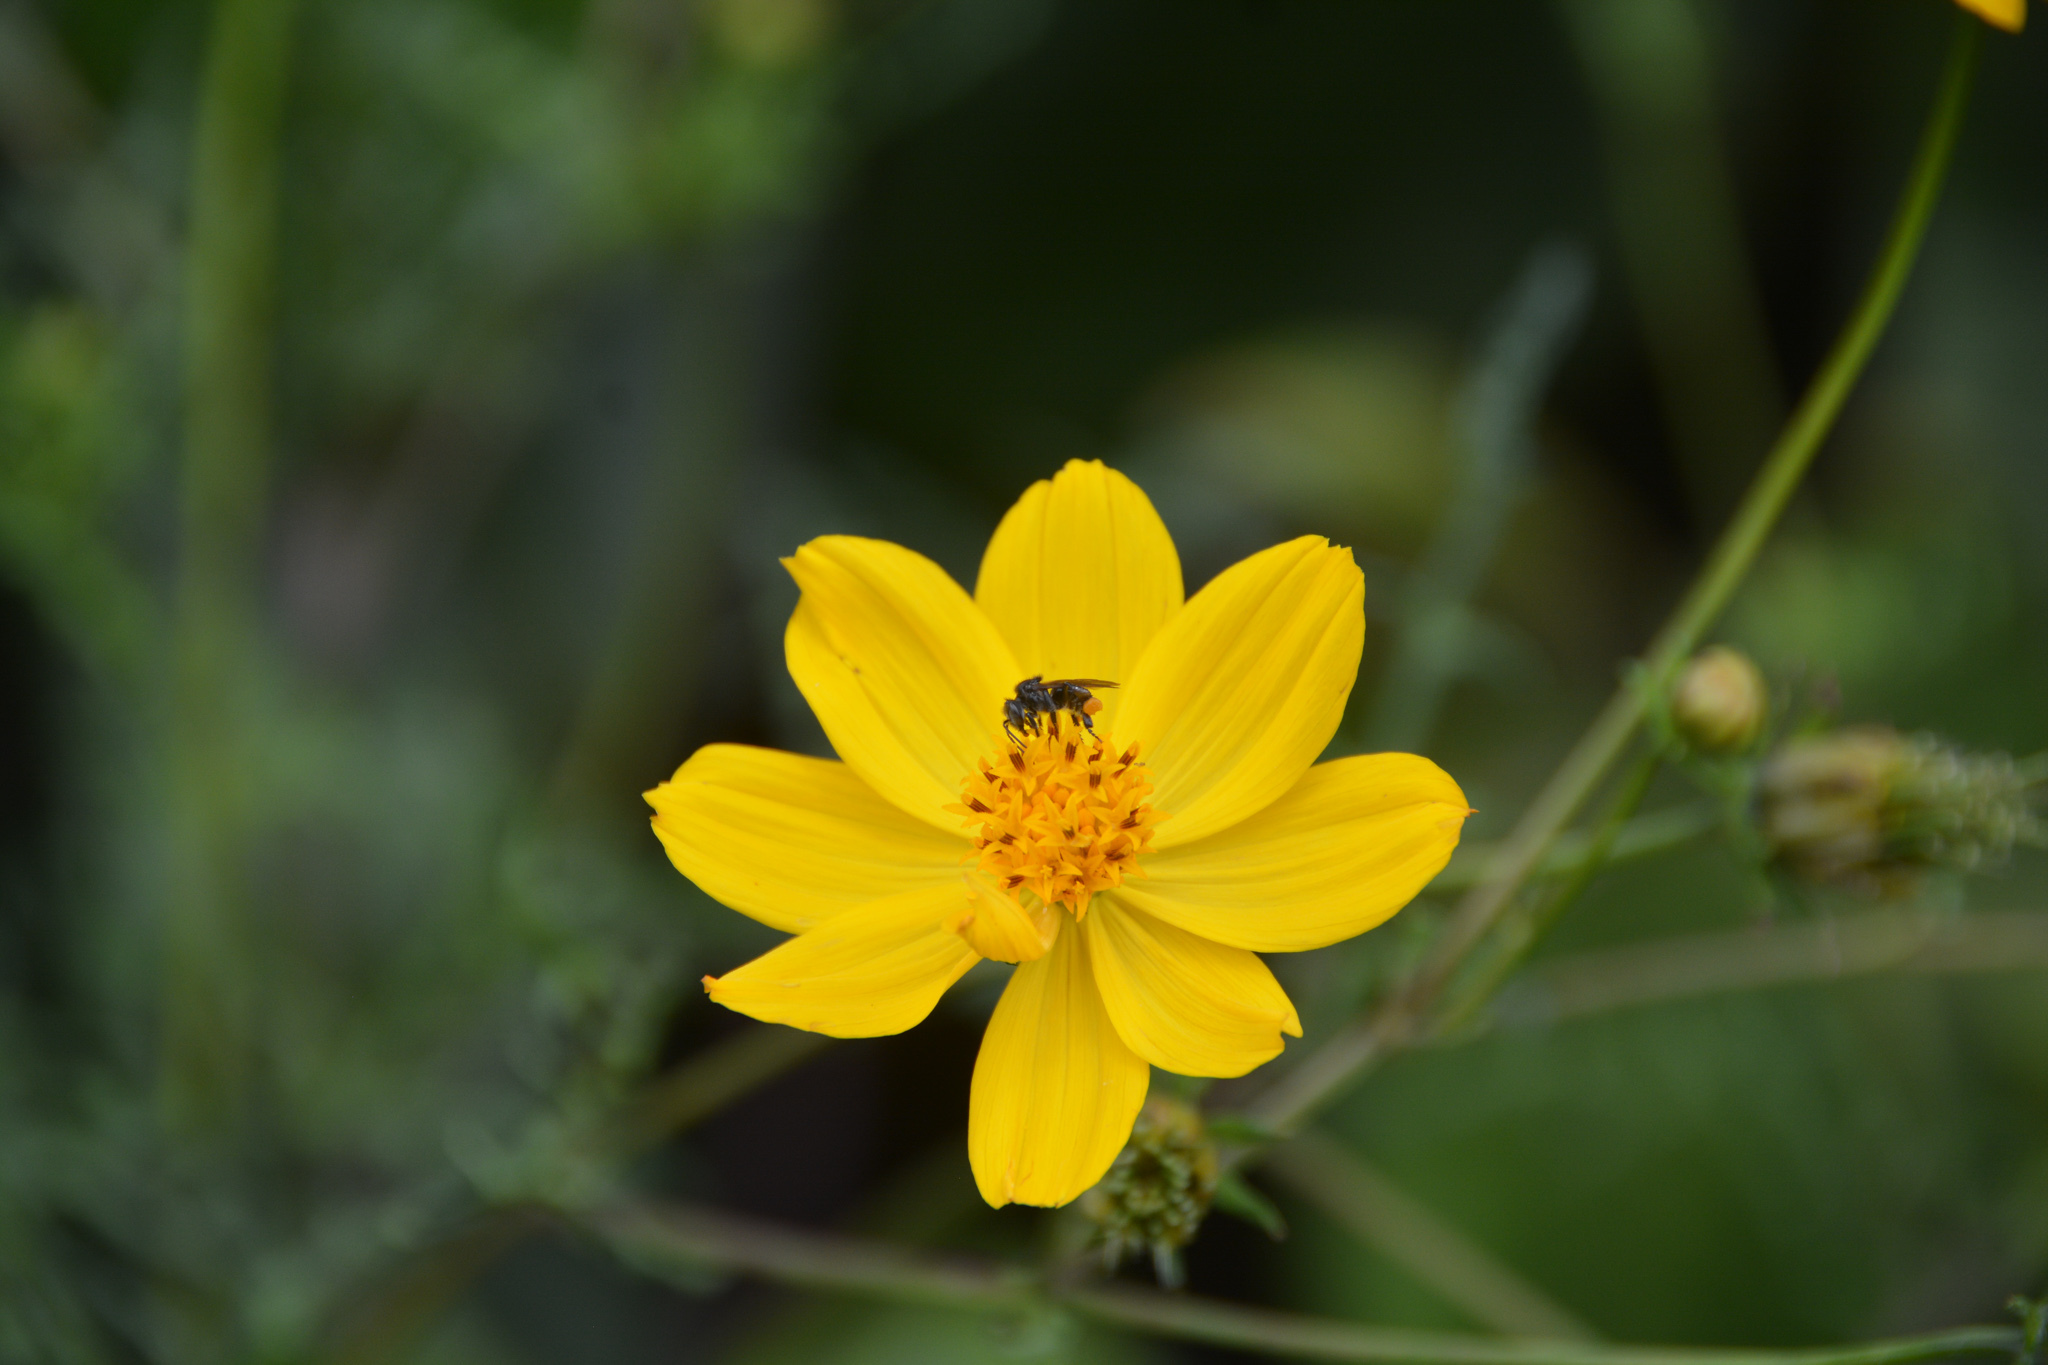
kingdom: Plantae
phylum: Tracheophyta
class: Magnoliopsida
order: Asterales
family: Asteraceae
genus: Cosmos
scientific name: Cosmos sulphureus
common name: Sulphur cosmos
